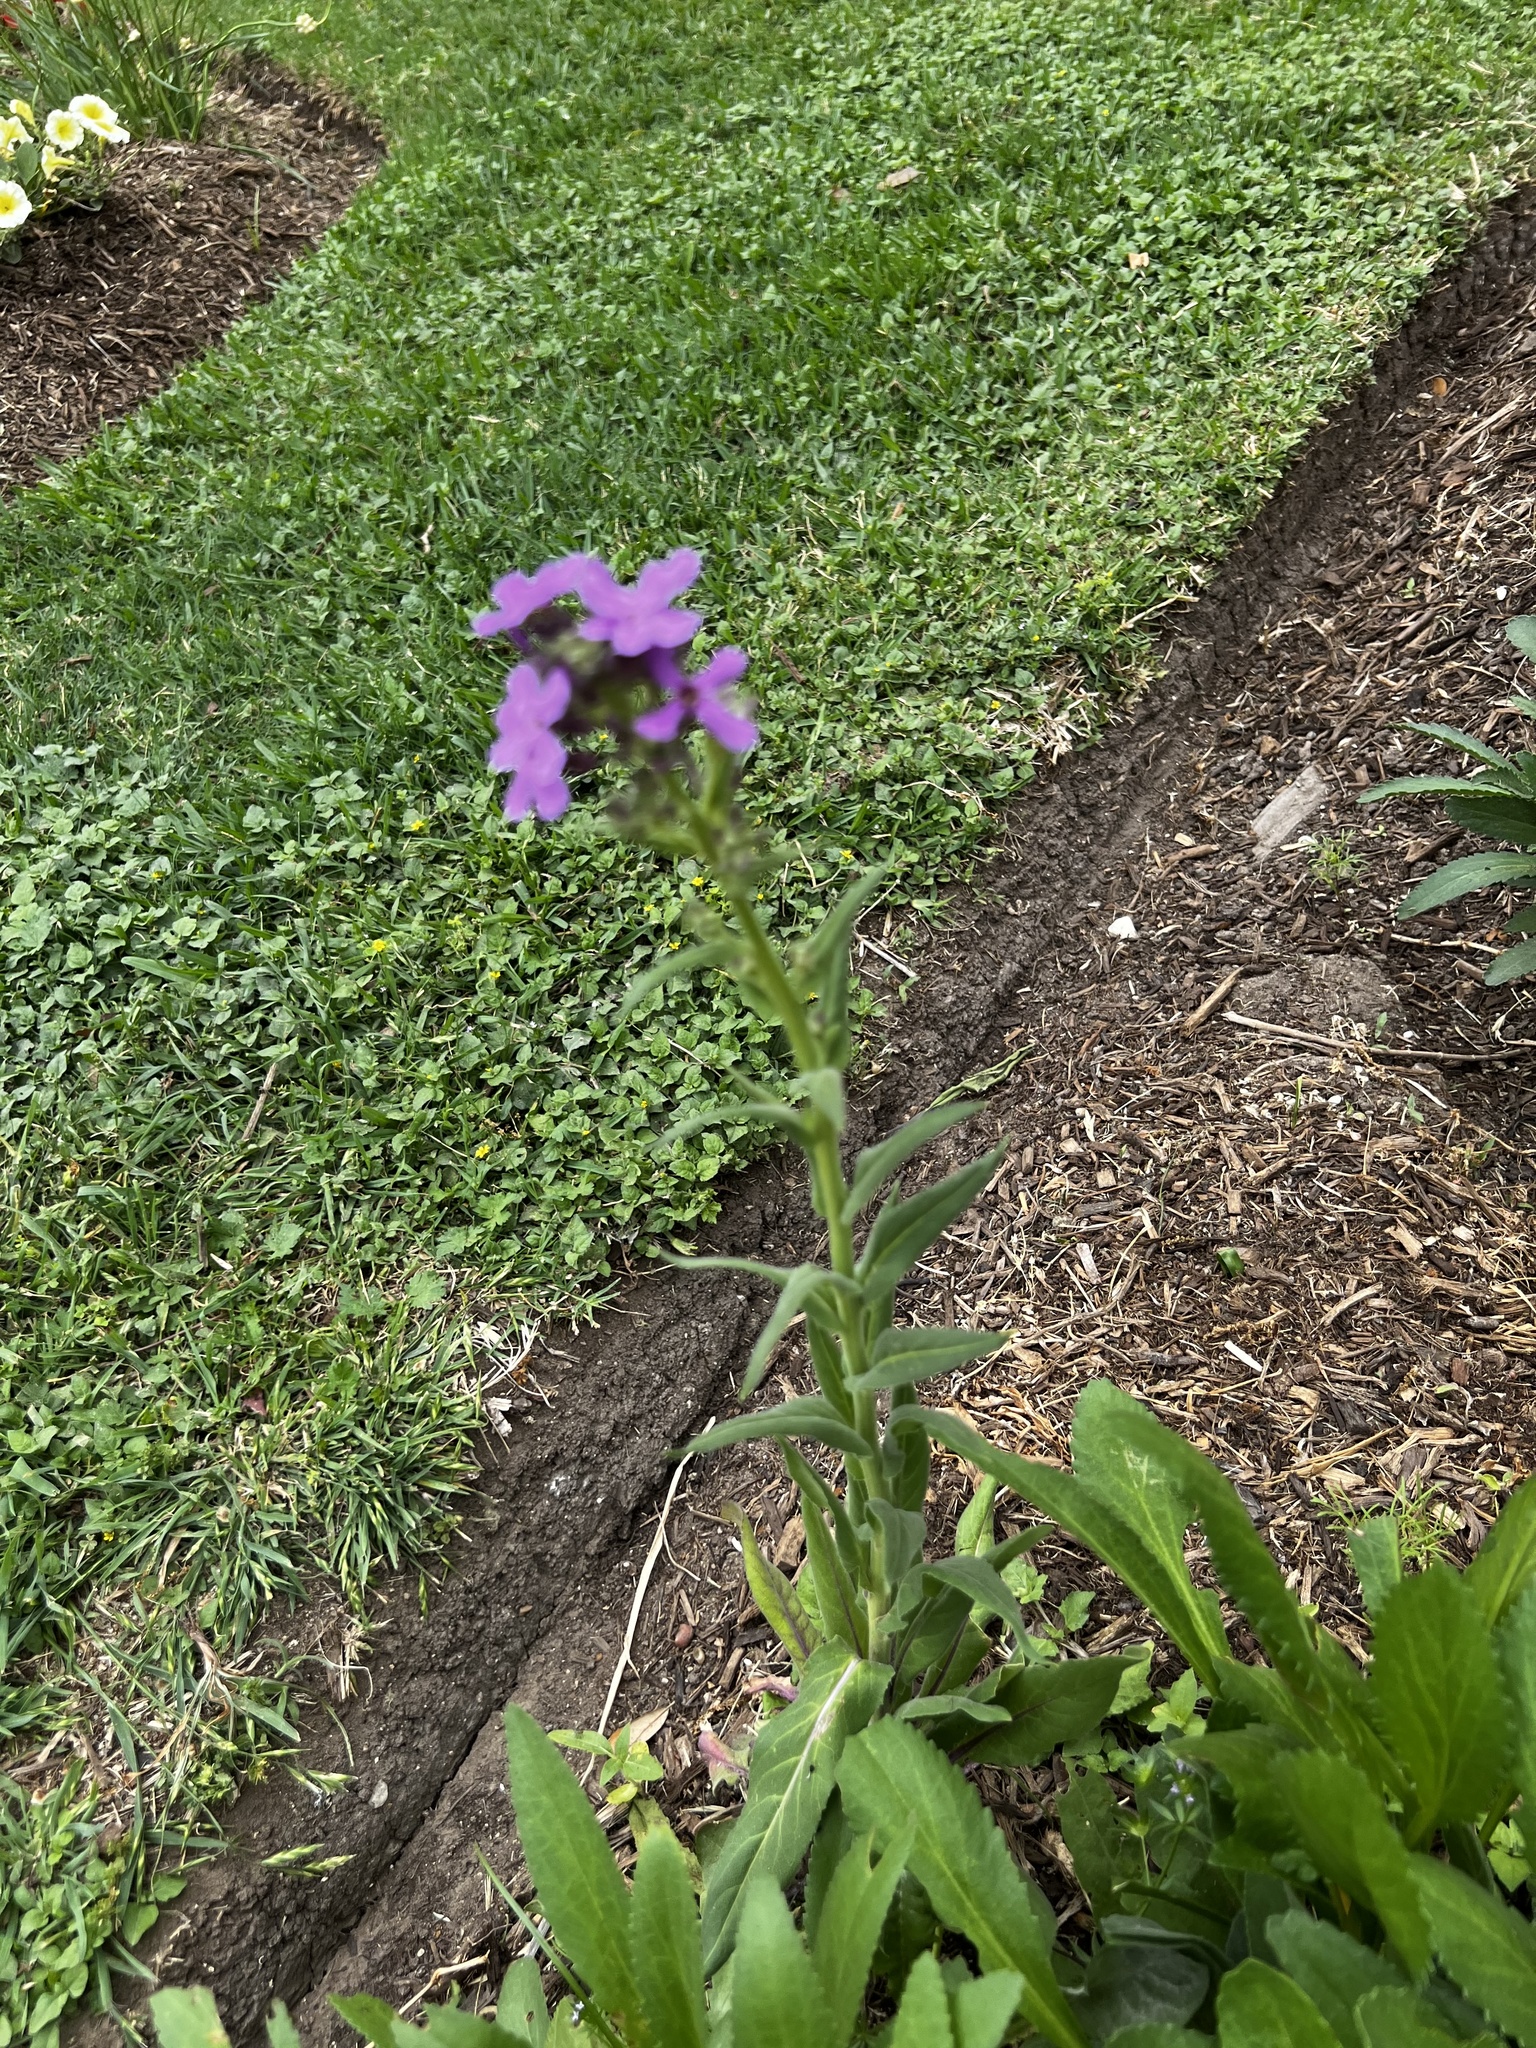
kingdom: Plantae
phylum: Tracheophyta
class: Magnoliopsida
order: Brassicales
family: Brassicaceae
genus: Hesperis
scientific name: Hesperis matronalis
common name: Dame's-violet
